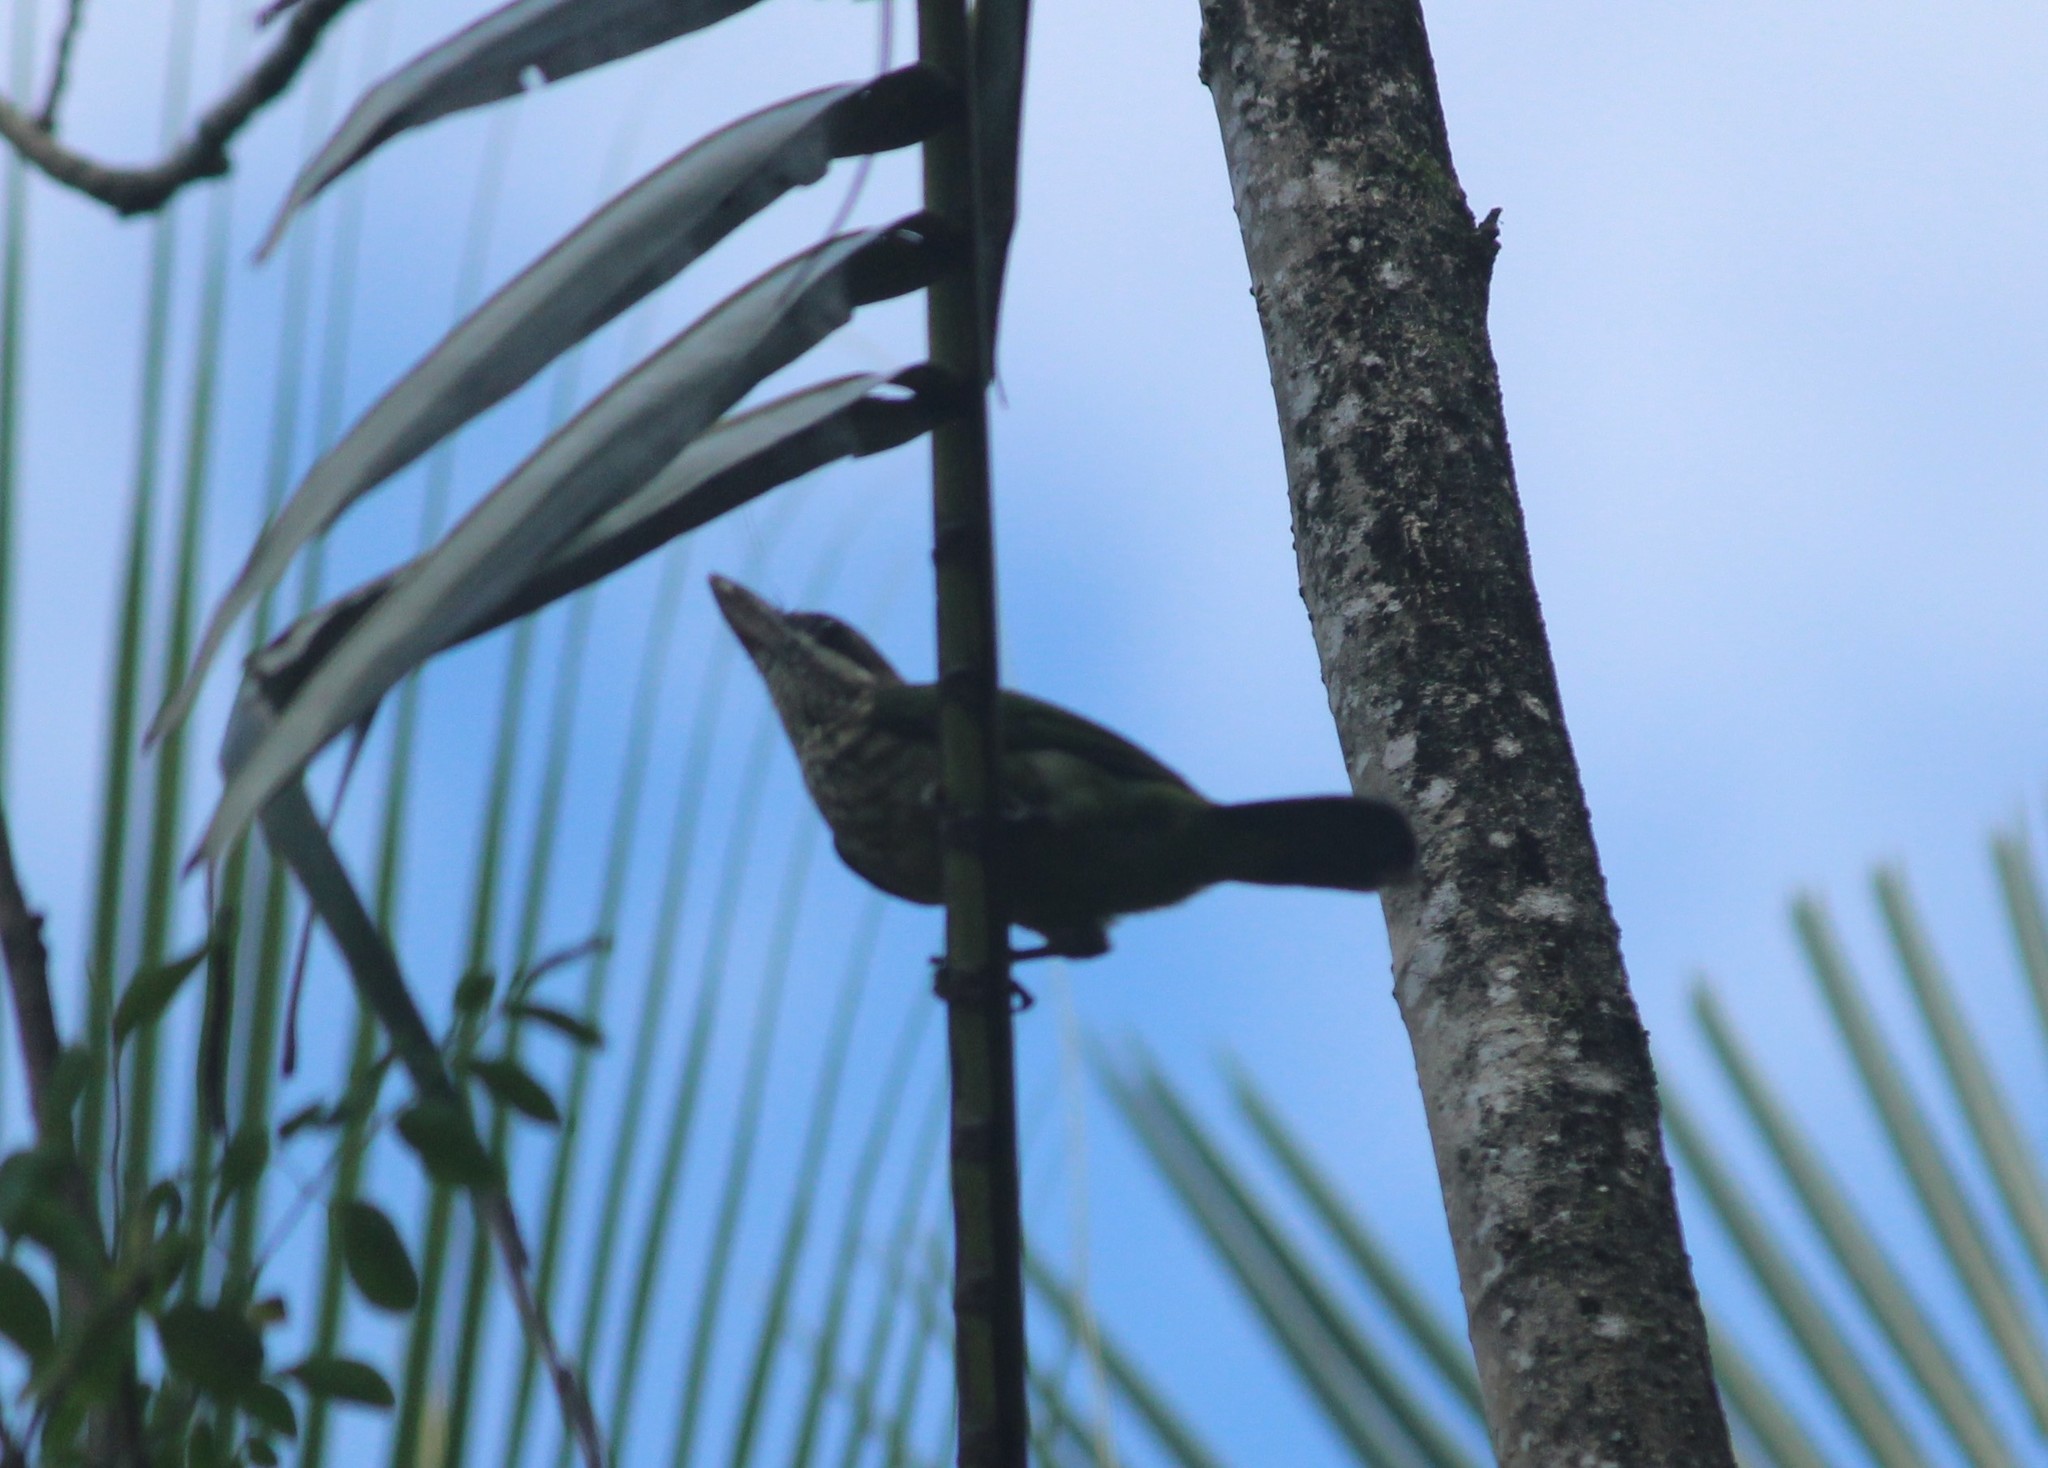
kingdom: Animalia
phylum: Chordata
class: Aves
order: Piciformes
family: Megalaimidae
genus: Psilopogon
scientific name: Psilopogon viridis
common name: White-cheeked barbet
